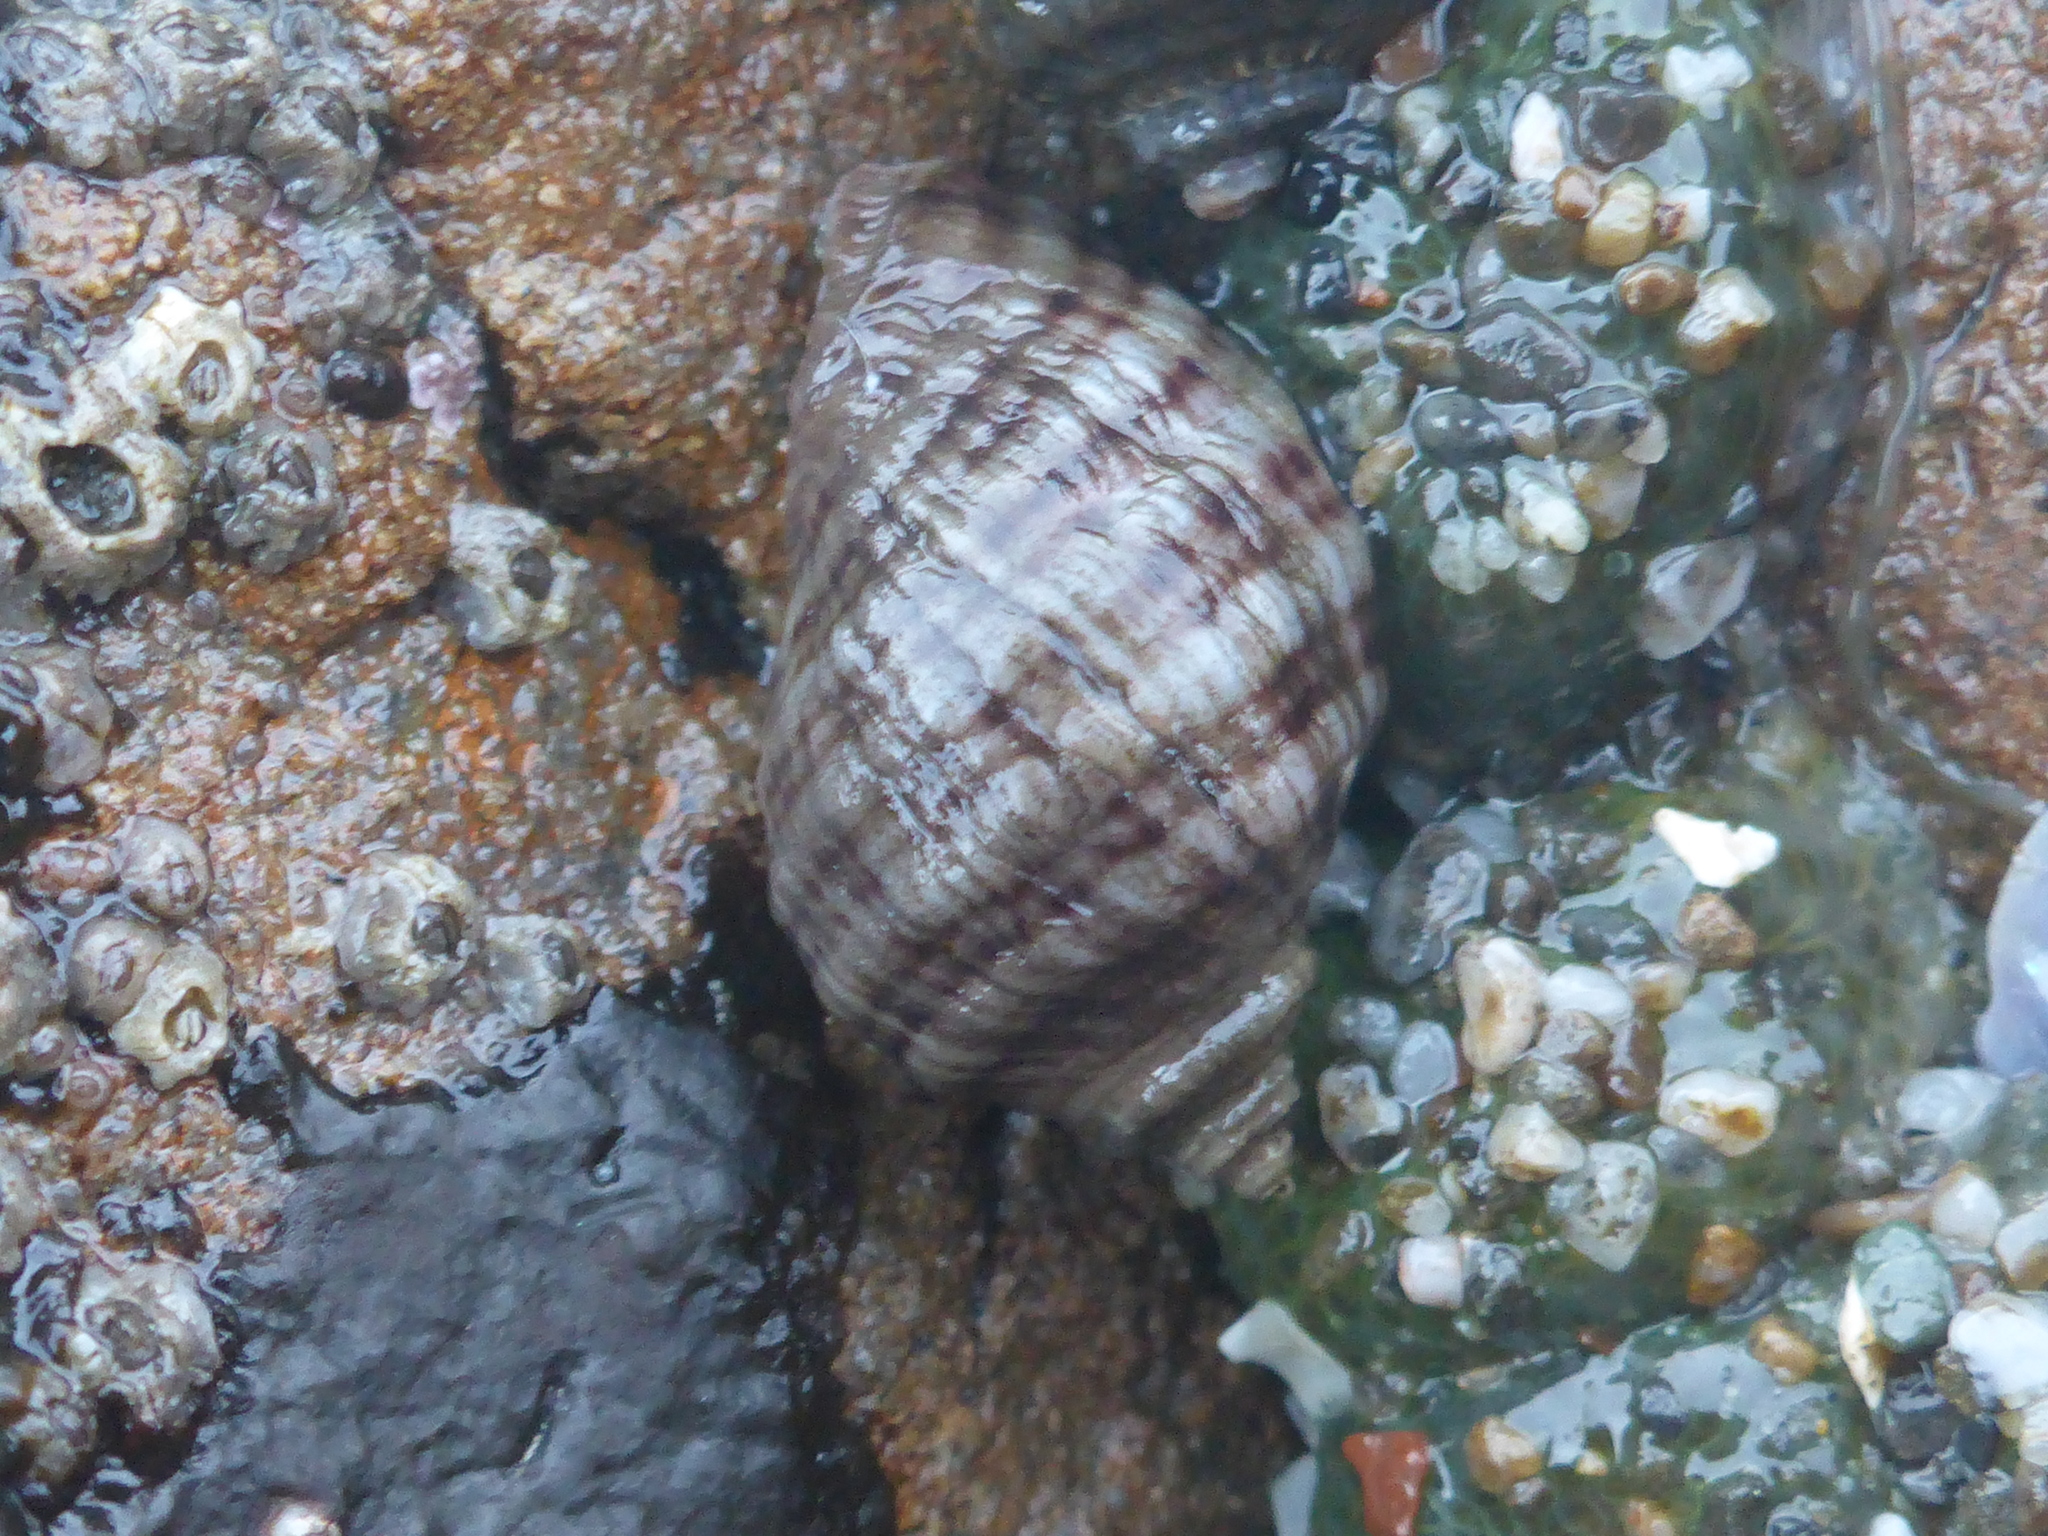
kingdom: Animalia
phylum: Mollusca
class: Gastropoda
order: Neogastropoda
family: Muricidae
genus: Nucella
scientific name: Nucella ostrina
